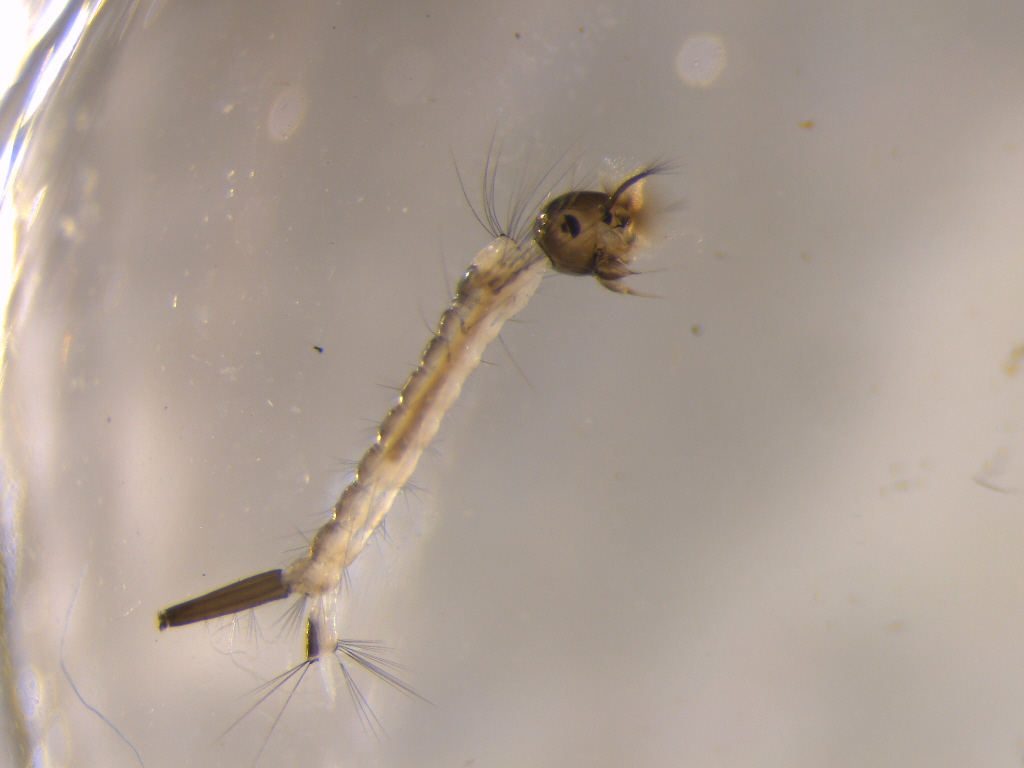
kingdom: Animalia
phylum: Arthropoda
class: Insecta
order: Diptera
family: Culicidae
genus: Culex
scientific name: Culex pervigilans
